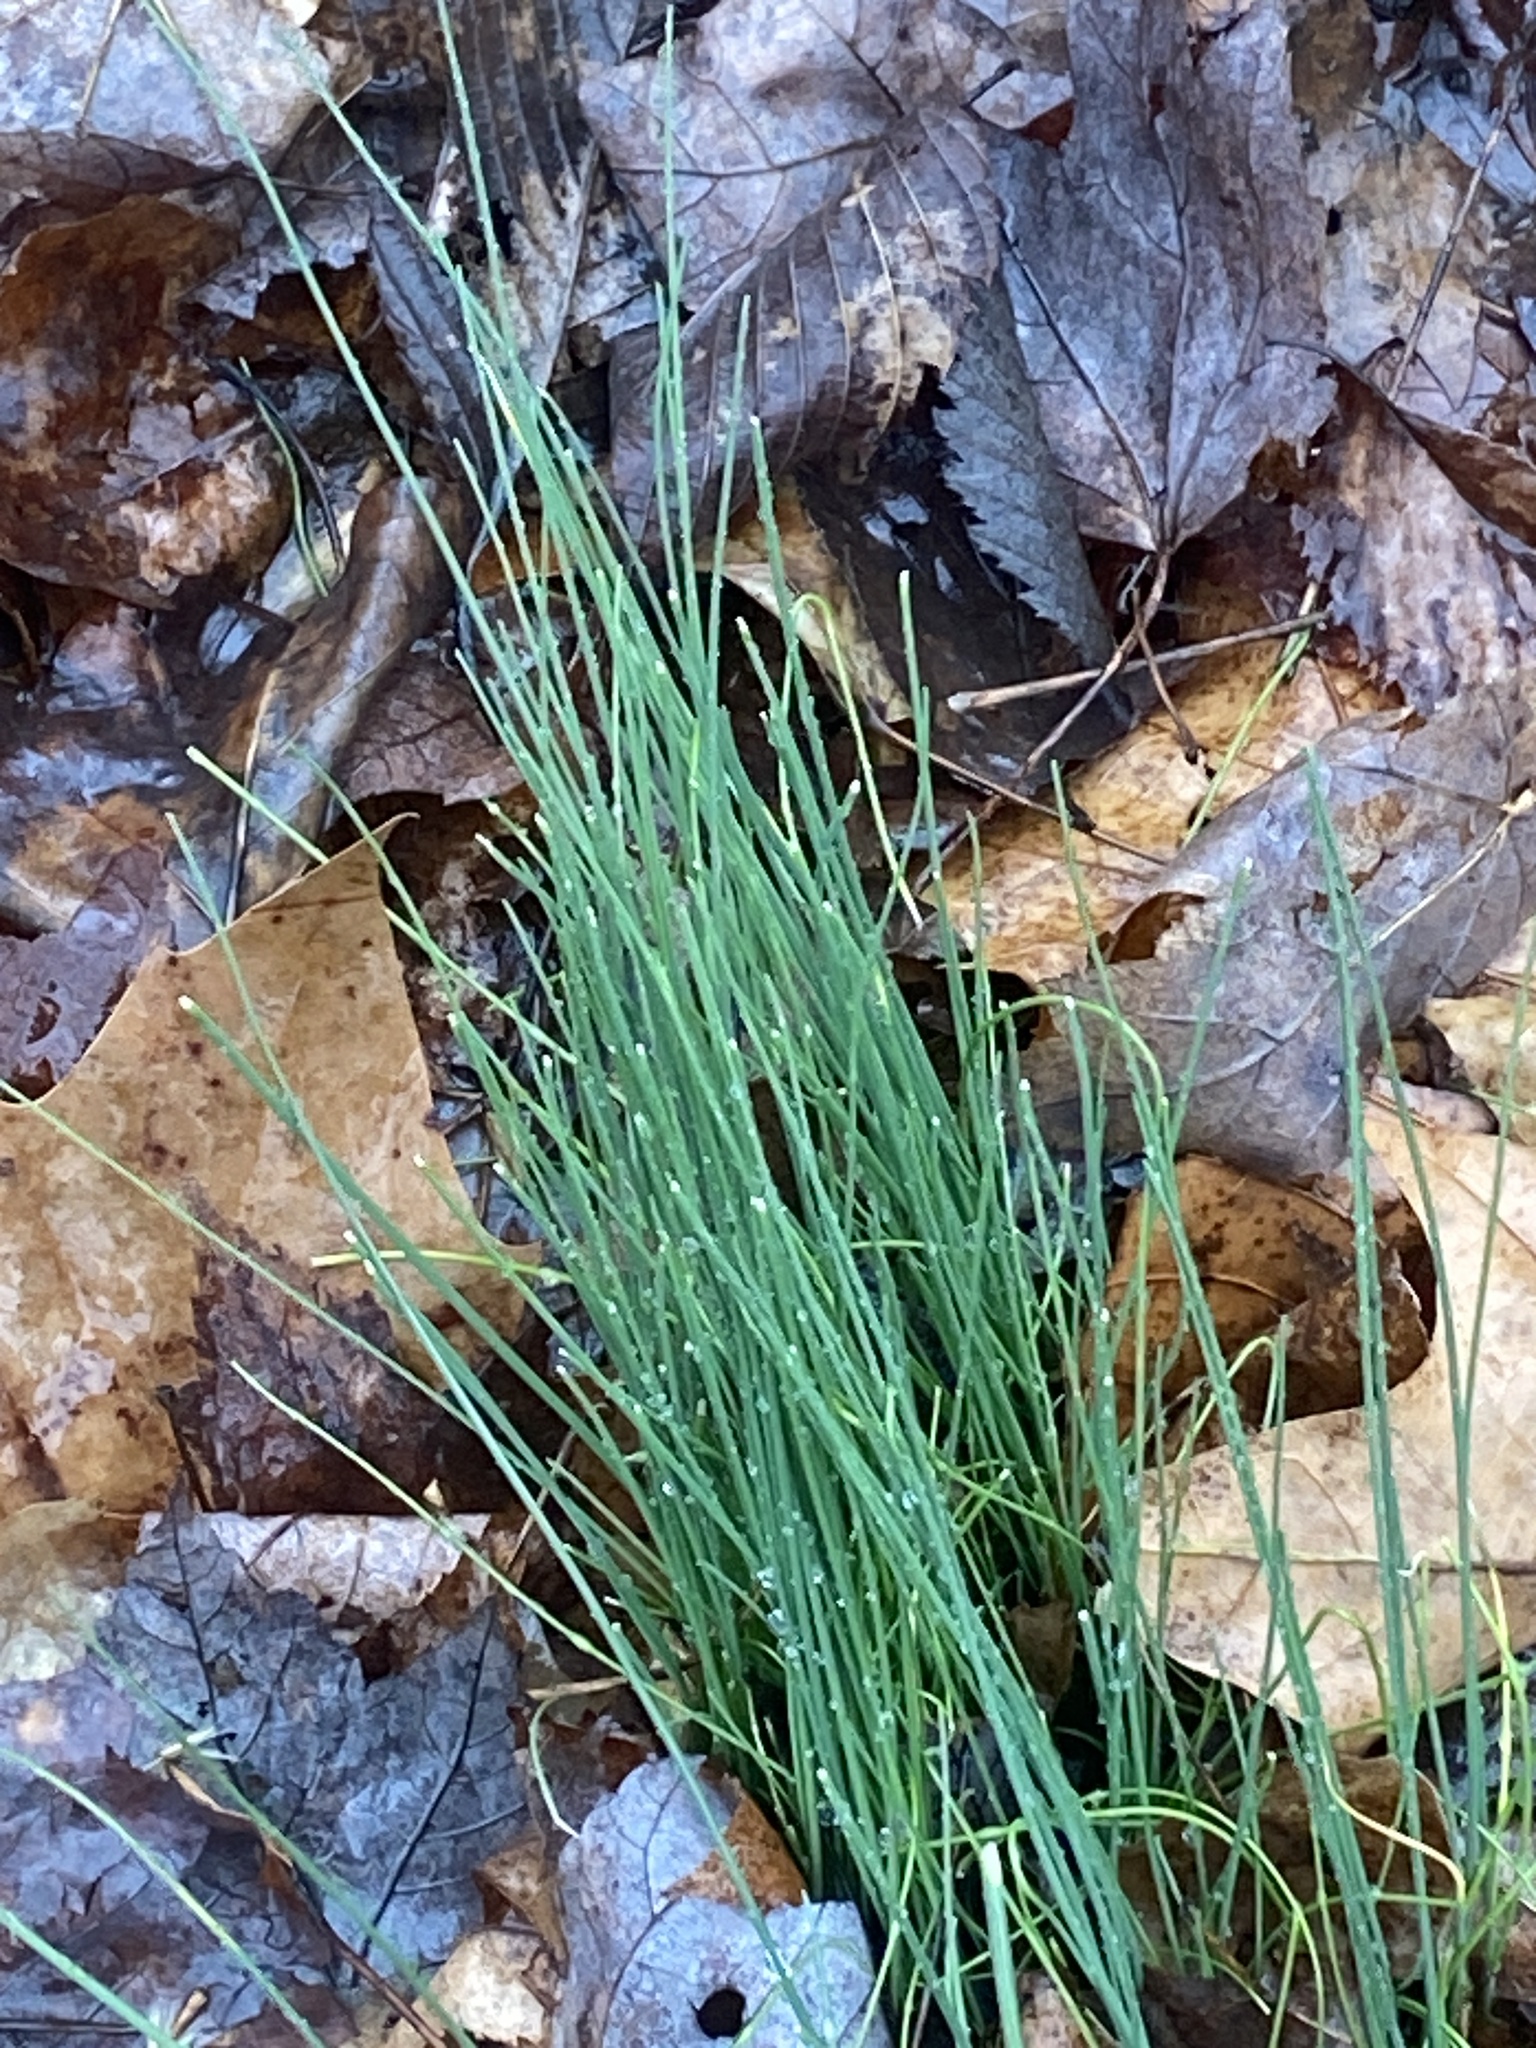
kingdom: Plantae
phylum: Tracheophyta
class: Liliopsida
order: Asparagales
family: Amaryllidaceae
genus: Allium
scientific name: Allium vineale
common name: Crow garlic
